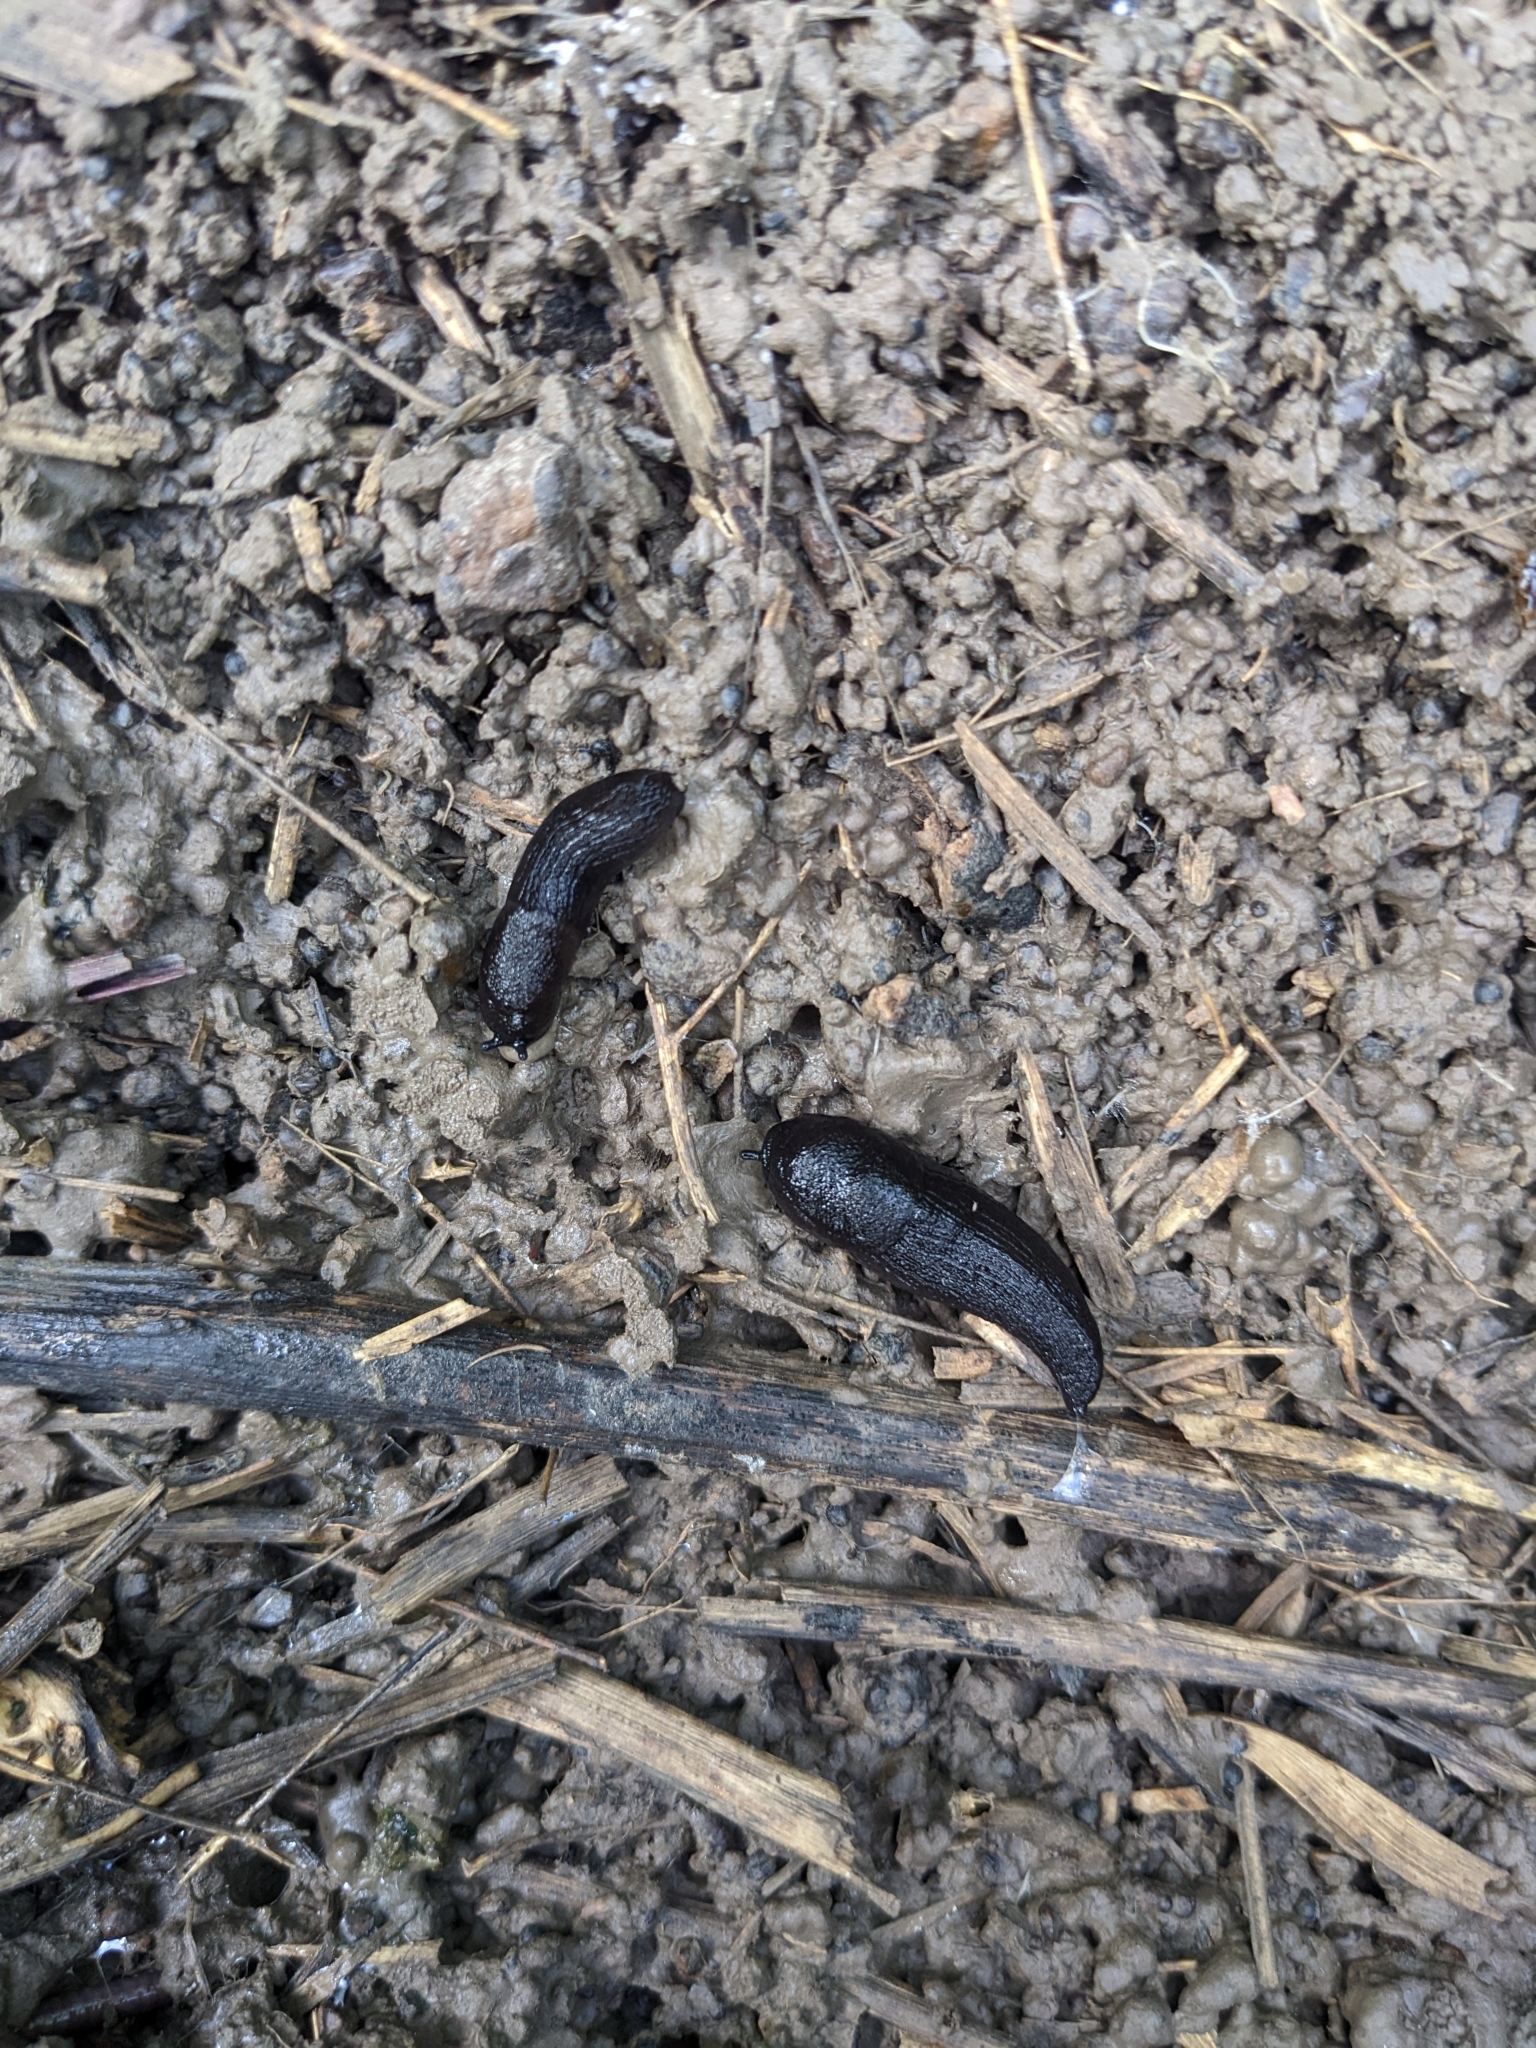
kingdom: Animalia
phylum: Mollusca
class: Gastropoda
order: Stylommatophora
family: Milacidae
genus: Milax
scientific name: Milax gagates
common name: Greenhouse slug
